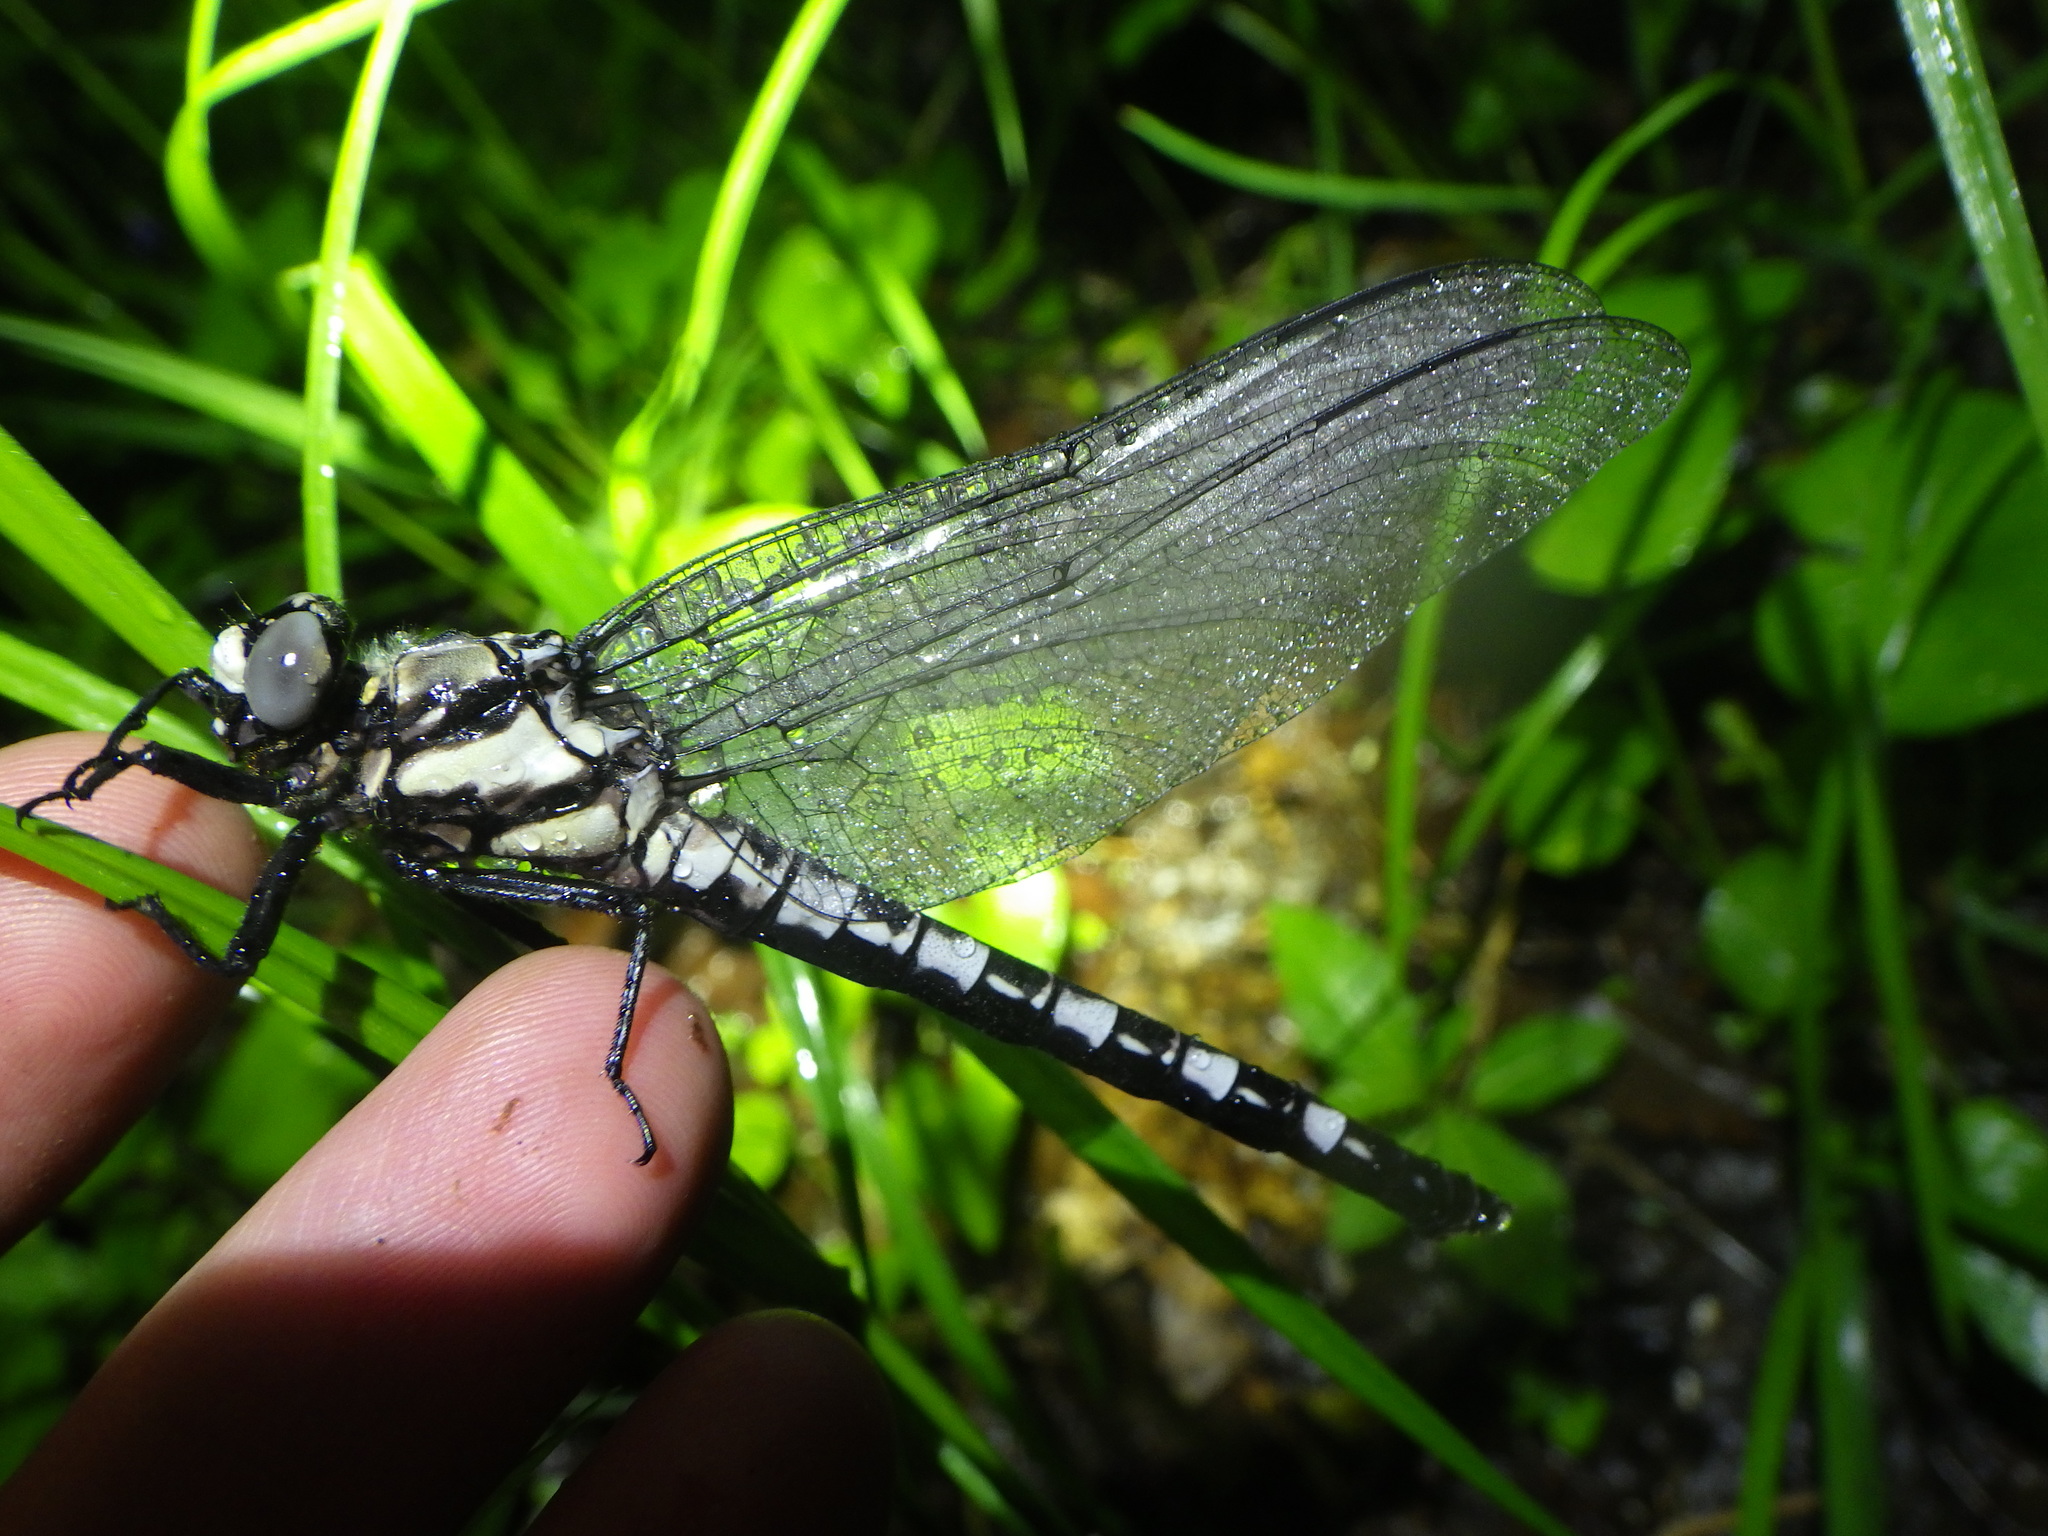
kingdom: Animalia
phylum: Arthropoda
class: Insecta
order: Odonata
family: Petaluridae
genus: Tachopteryx
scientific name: Tachopteryx thoreyi
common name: Gray petaltail
